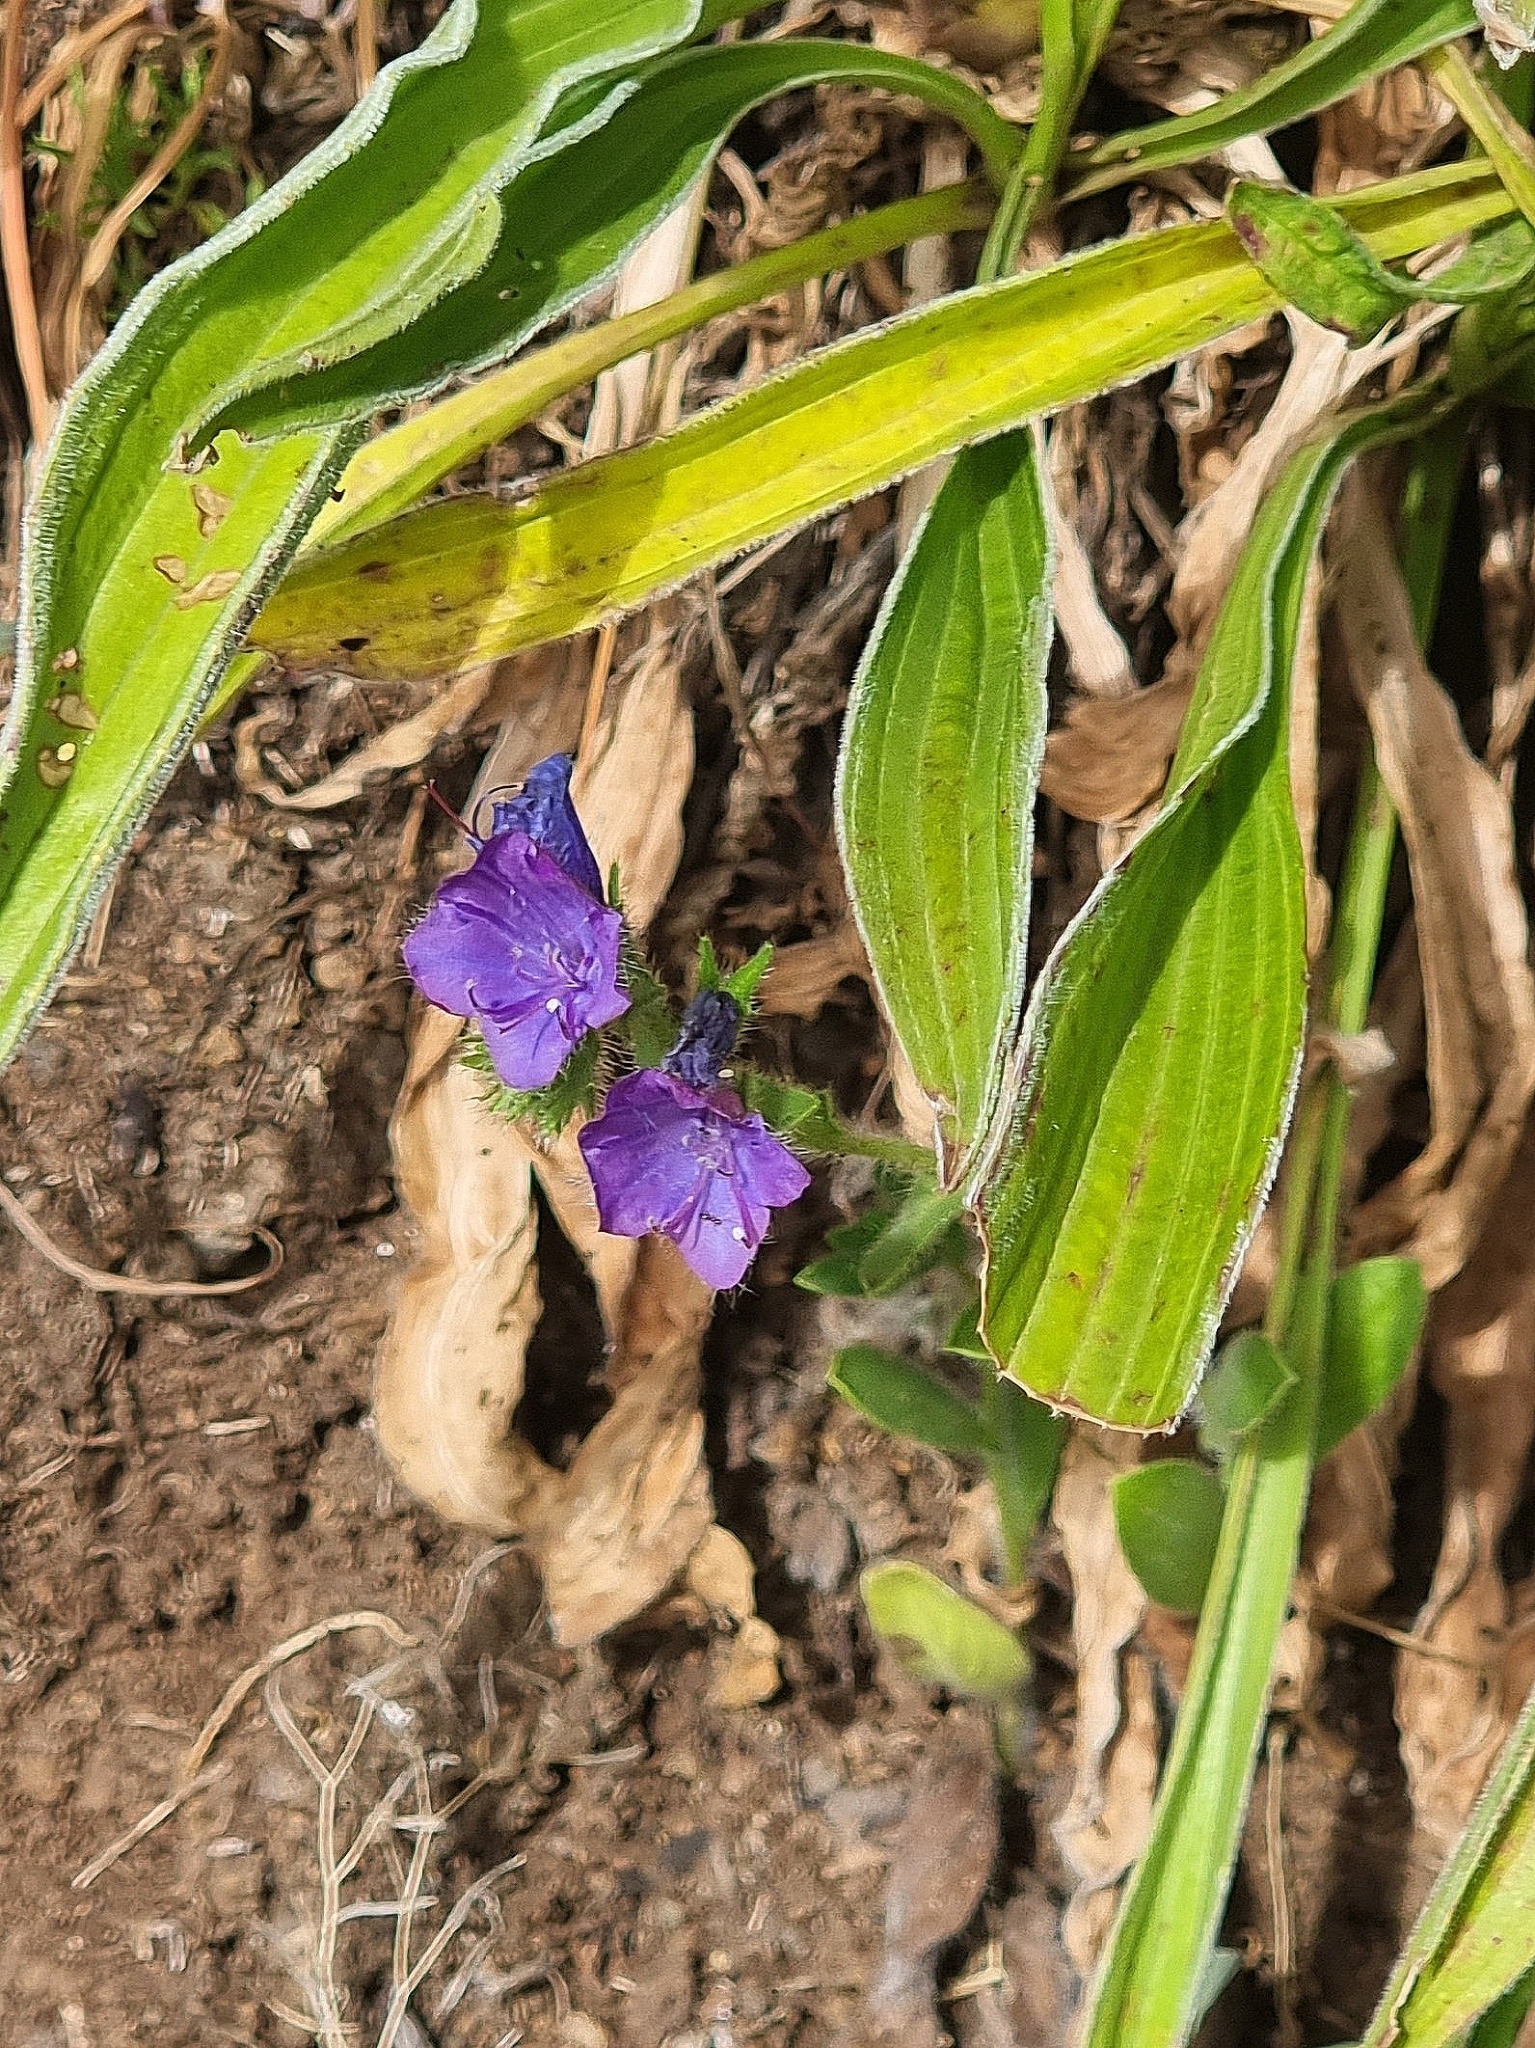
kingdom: Plantae
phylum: Tracheophyta
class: Magnoliopsida
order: Boraginales
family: Boraginaceae
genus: Echium
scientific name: Echium plantagineum
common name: Purple viper's-bugloss
